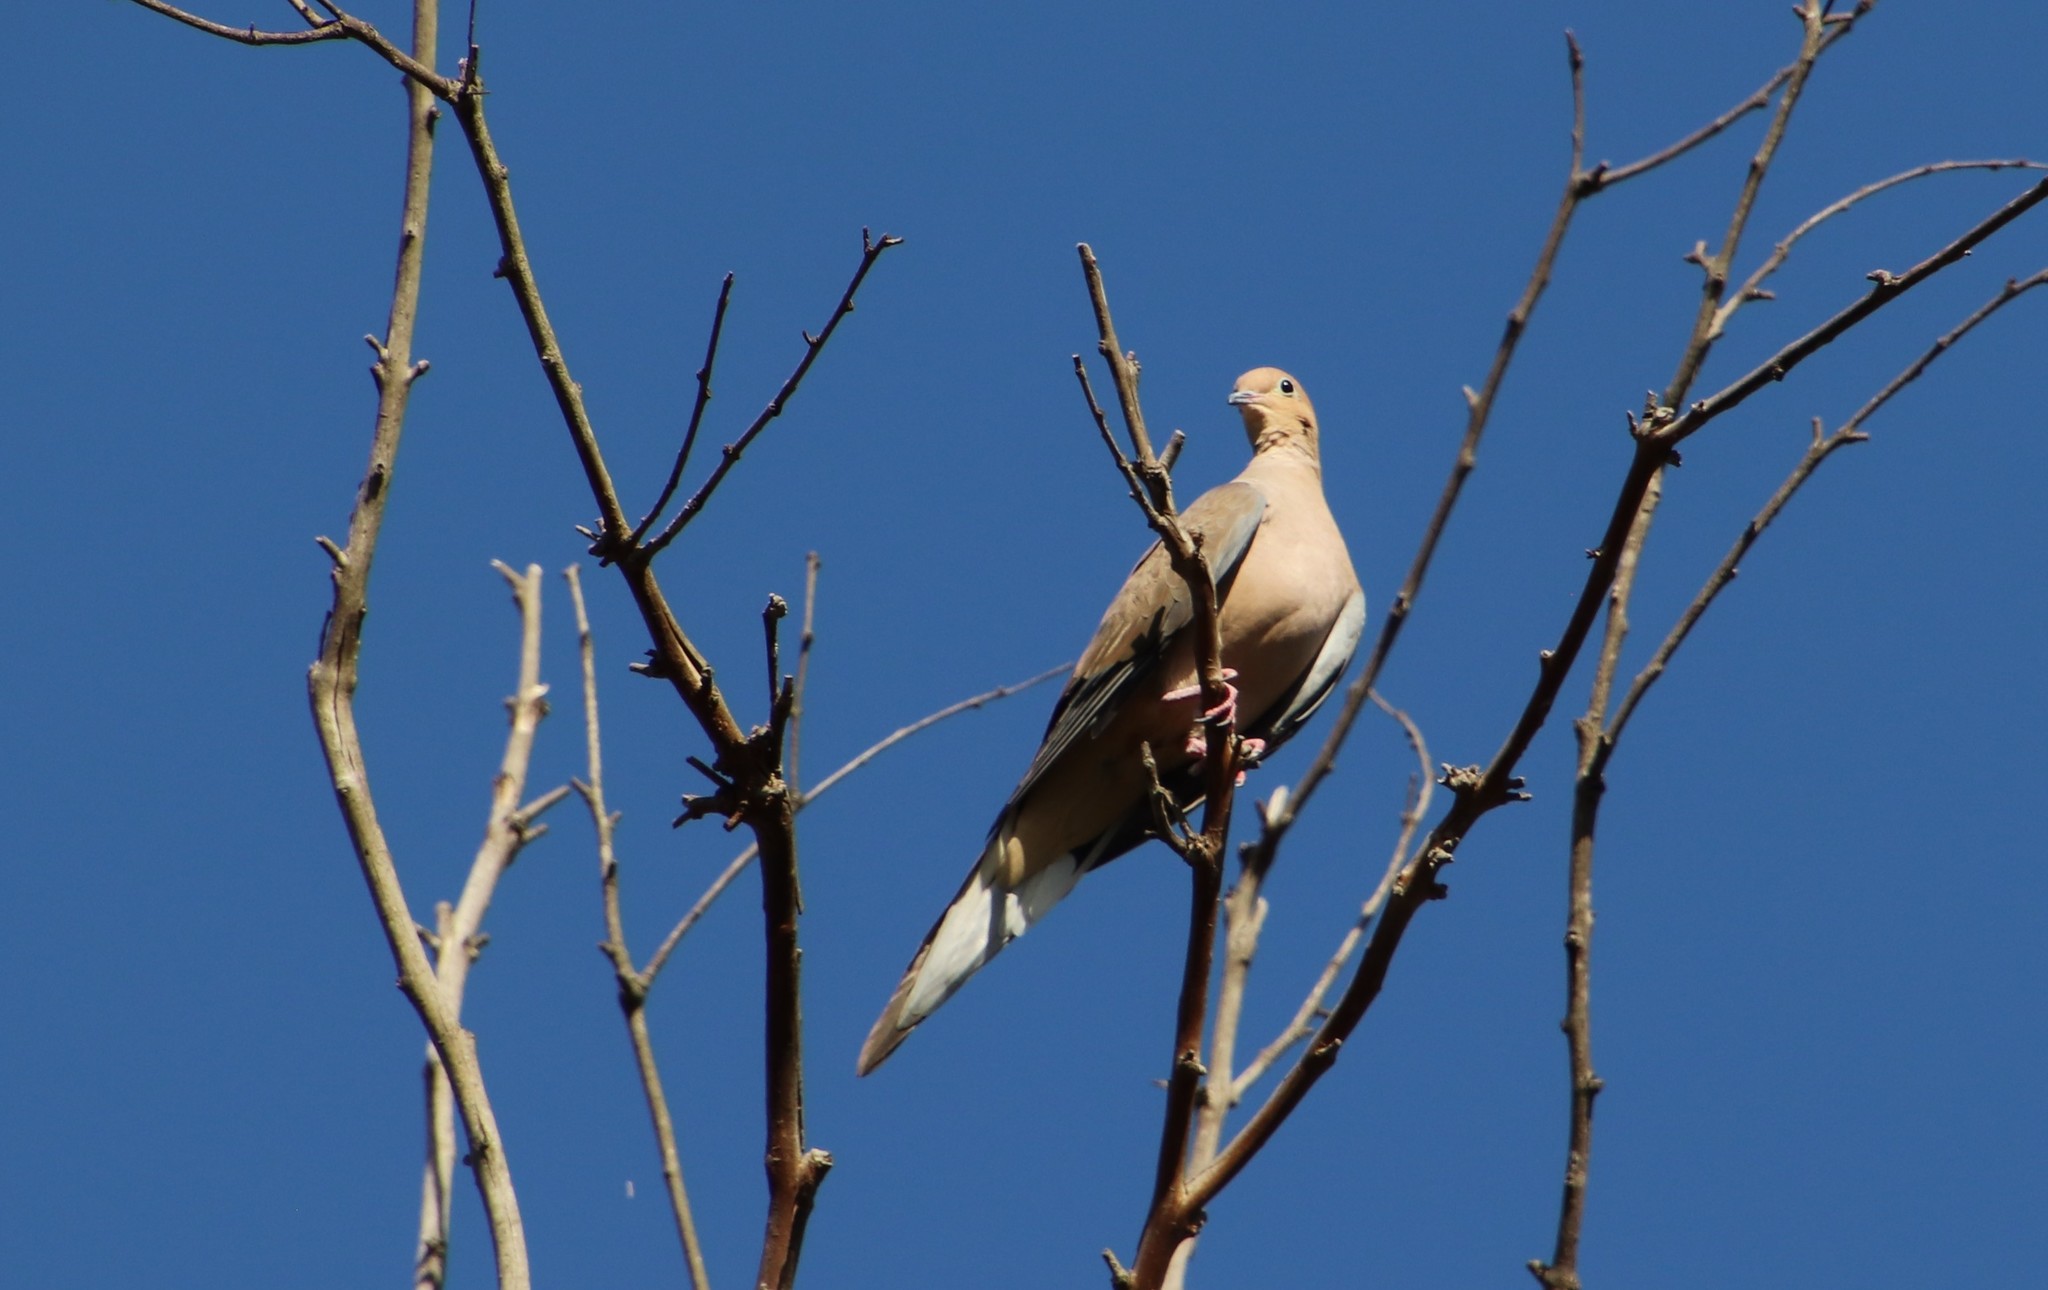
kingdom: Animalia
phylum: Chordata
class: Aves
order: Columbiformes
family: Columbidae
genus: Zenaida
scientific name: Zenaida macroura
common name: Mourning dove
